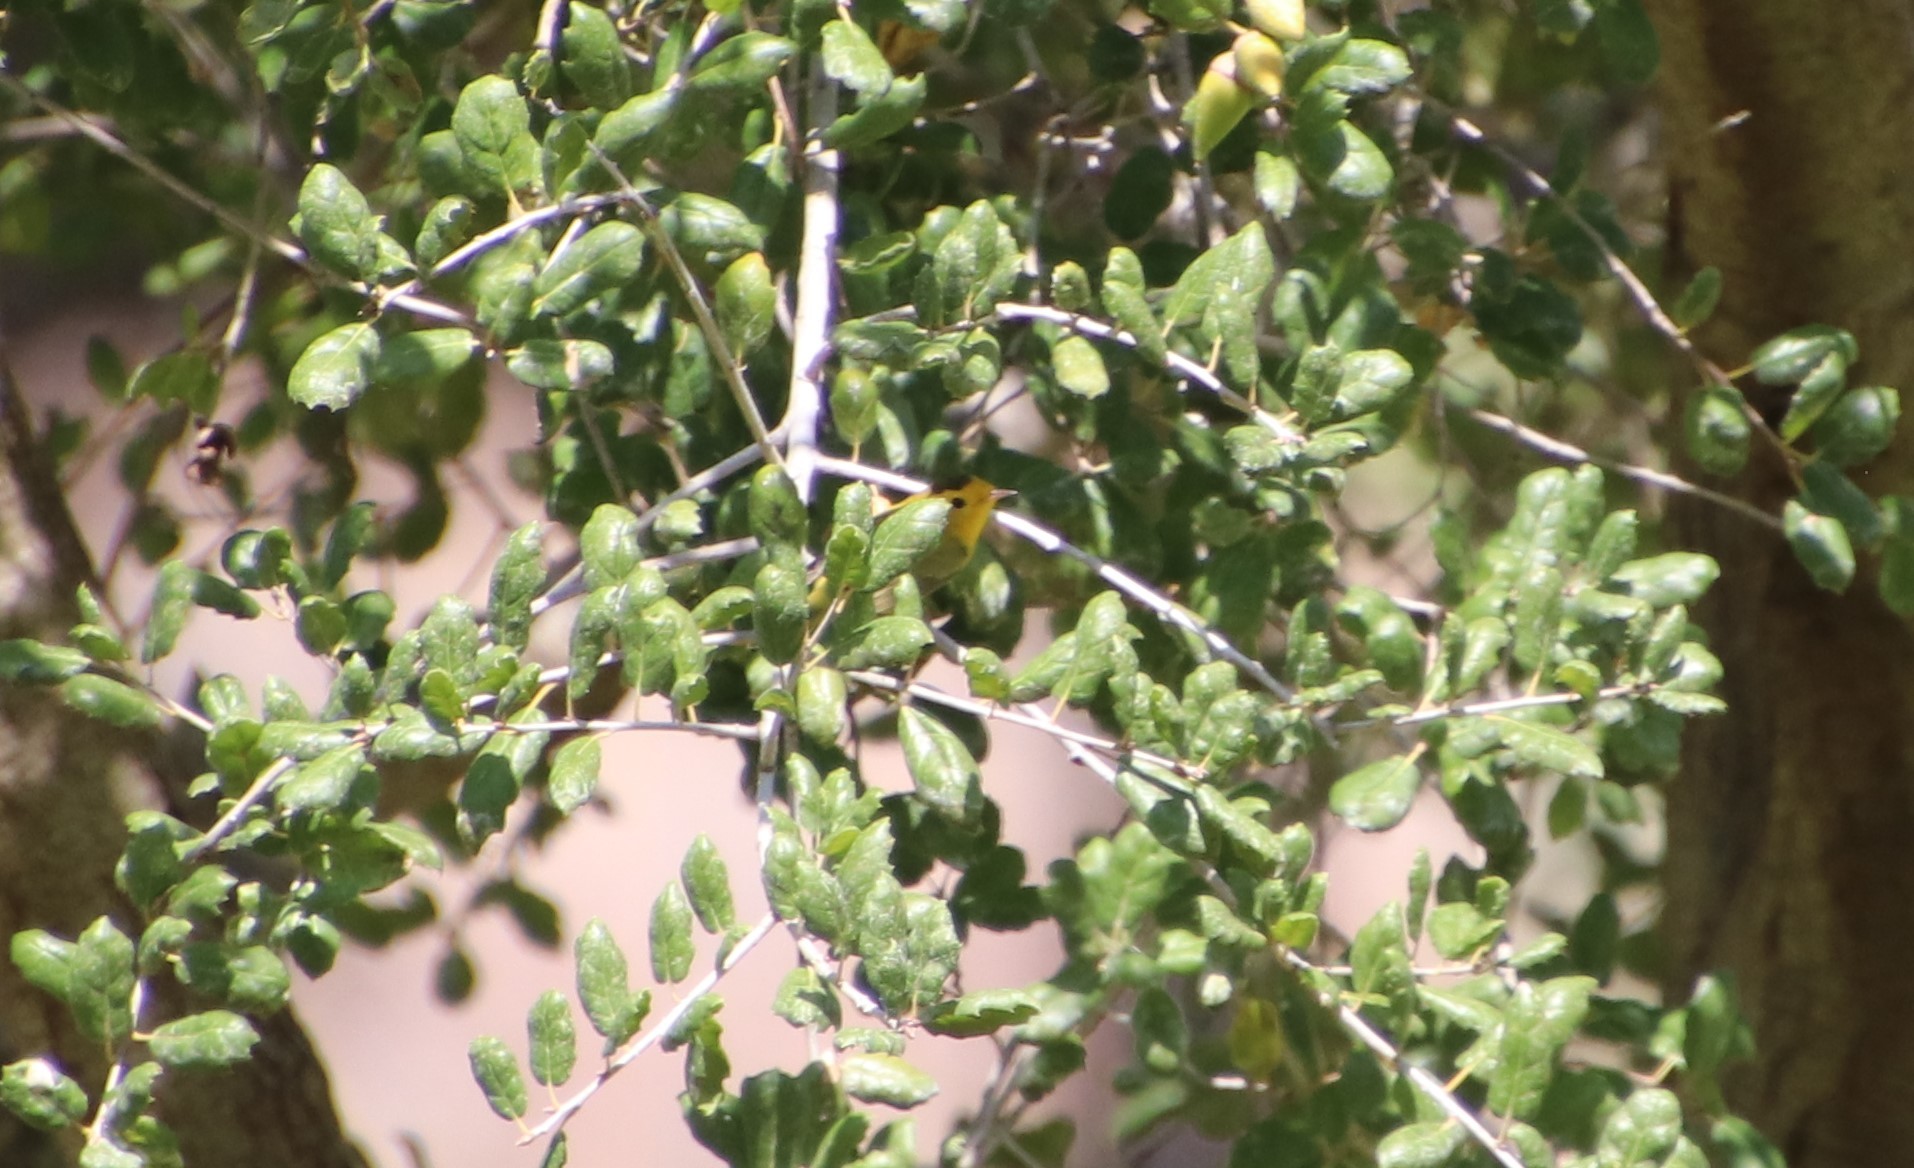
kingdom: Animalia
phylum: Chordata
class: Aves
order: Passeriformes
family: Parulidae
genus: Cardellina
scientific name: Cardellina pusilla
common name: Wilson's warbler
